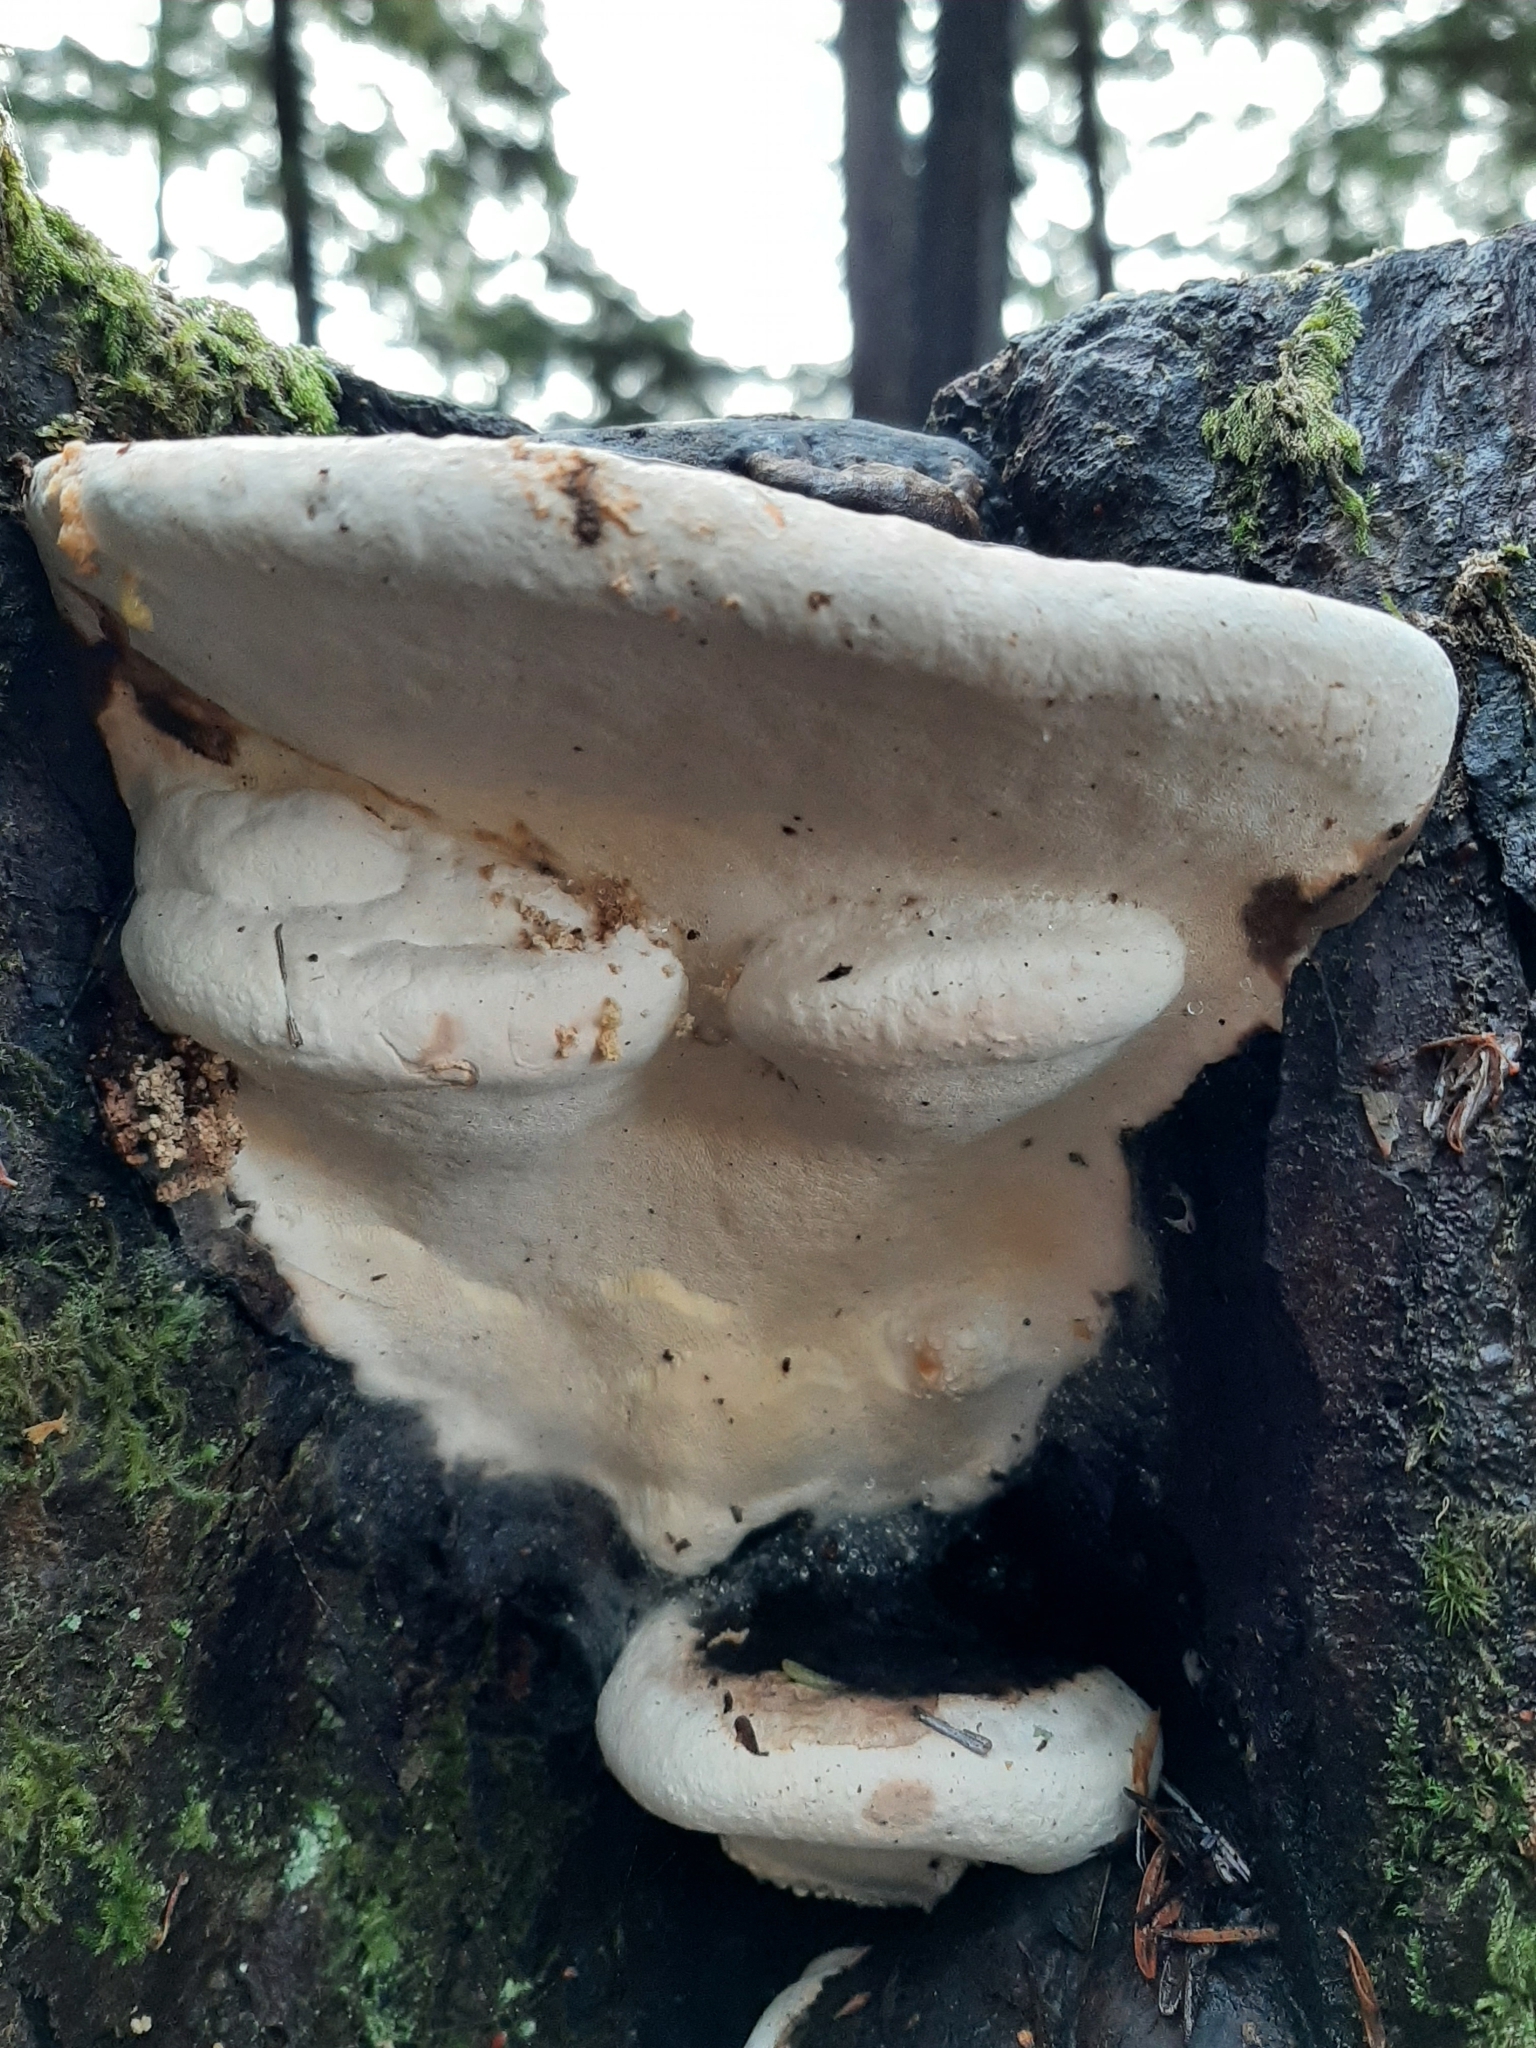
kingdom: Fungi
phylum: Basidiomycota
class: Agaricomycetes
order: Polyporales
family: Fomitopsidaceae
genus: Fomitopsis
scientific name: Fomitopsis ochracea
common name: American brown fomitopsis
